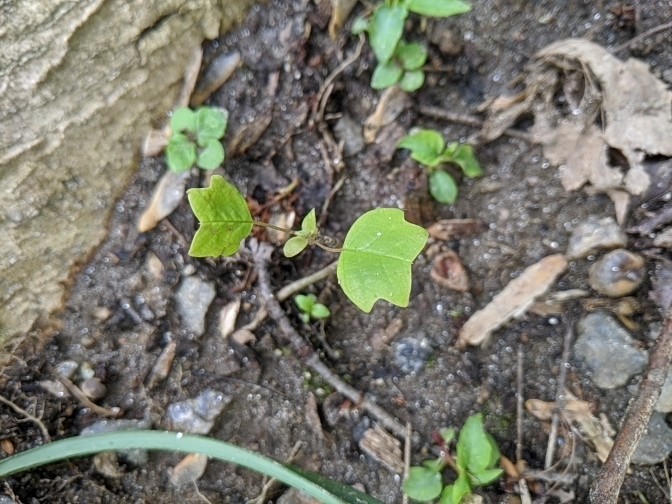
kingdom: Plantae
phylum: Tracheophyta
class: Magnoliopsida
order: Magnoliales
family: Magnoliaceae
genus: Liriodendron
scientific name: Liriodendron tulipifera
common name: Tulip tree
